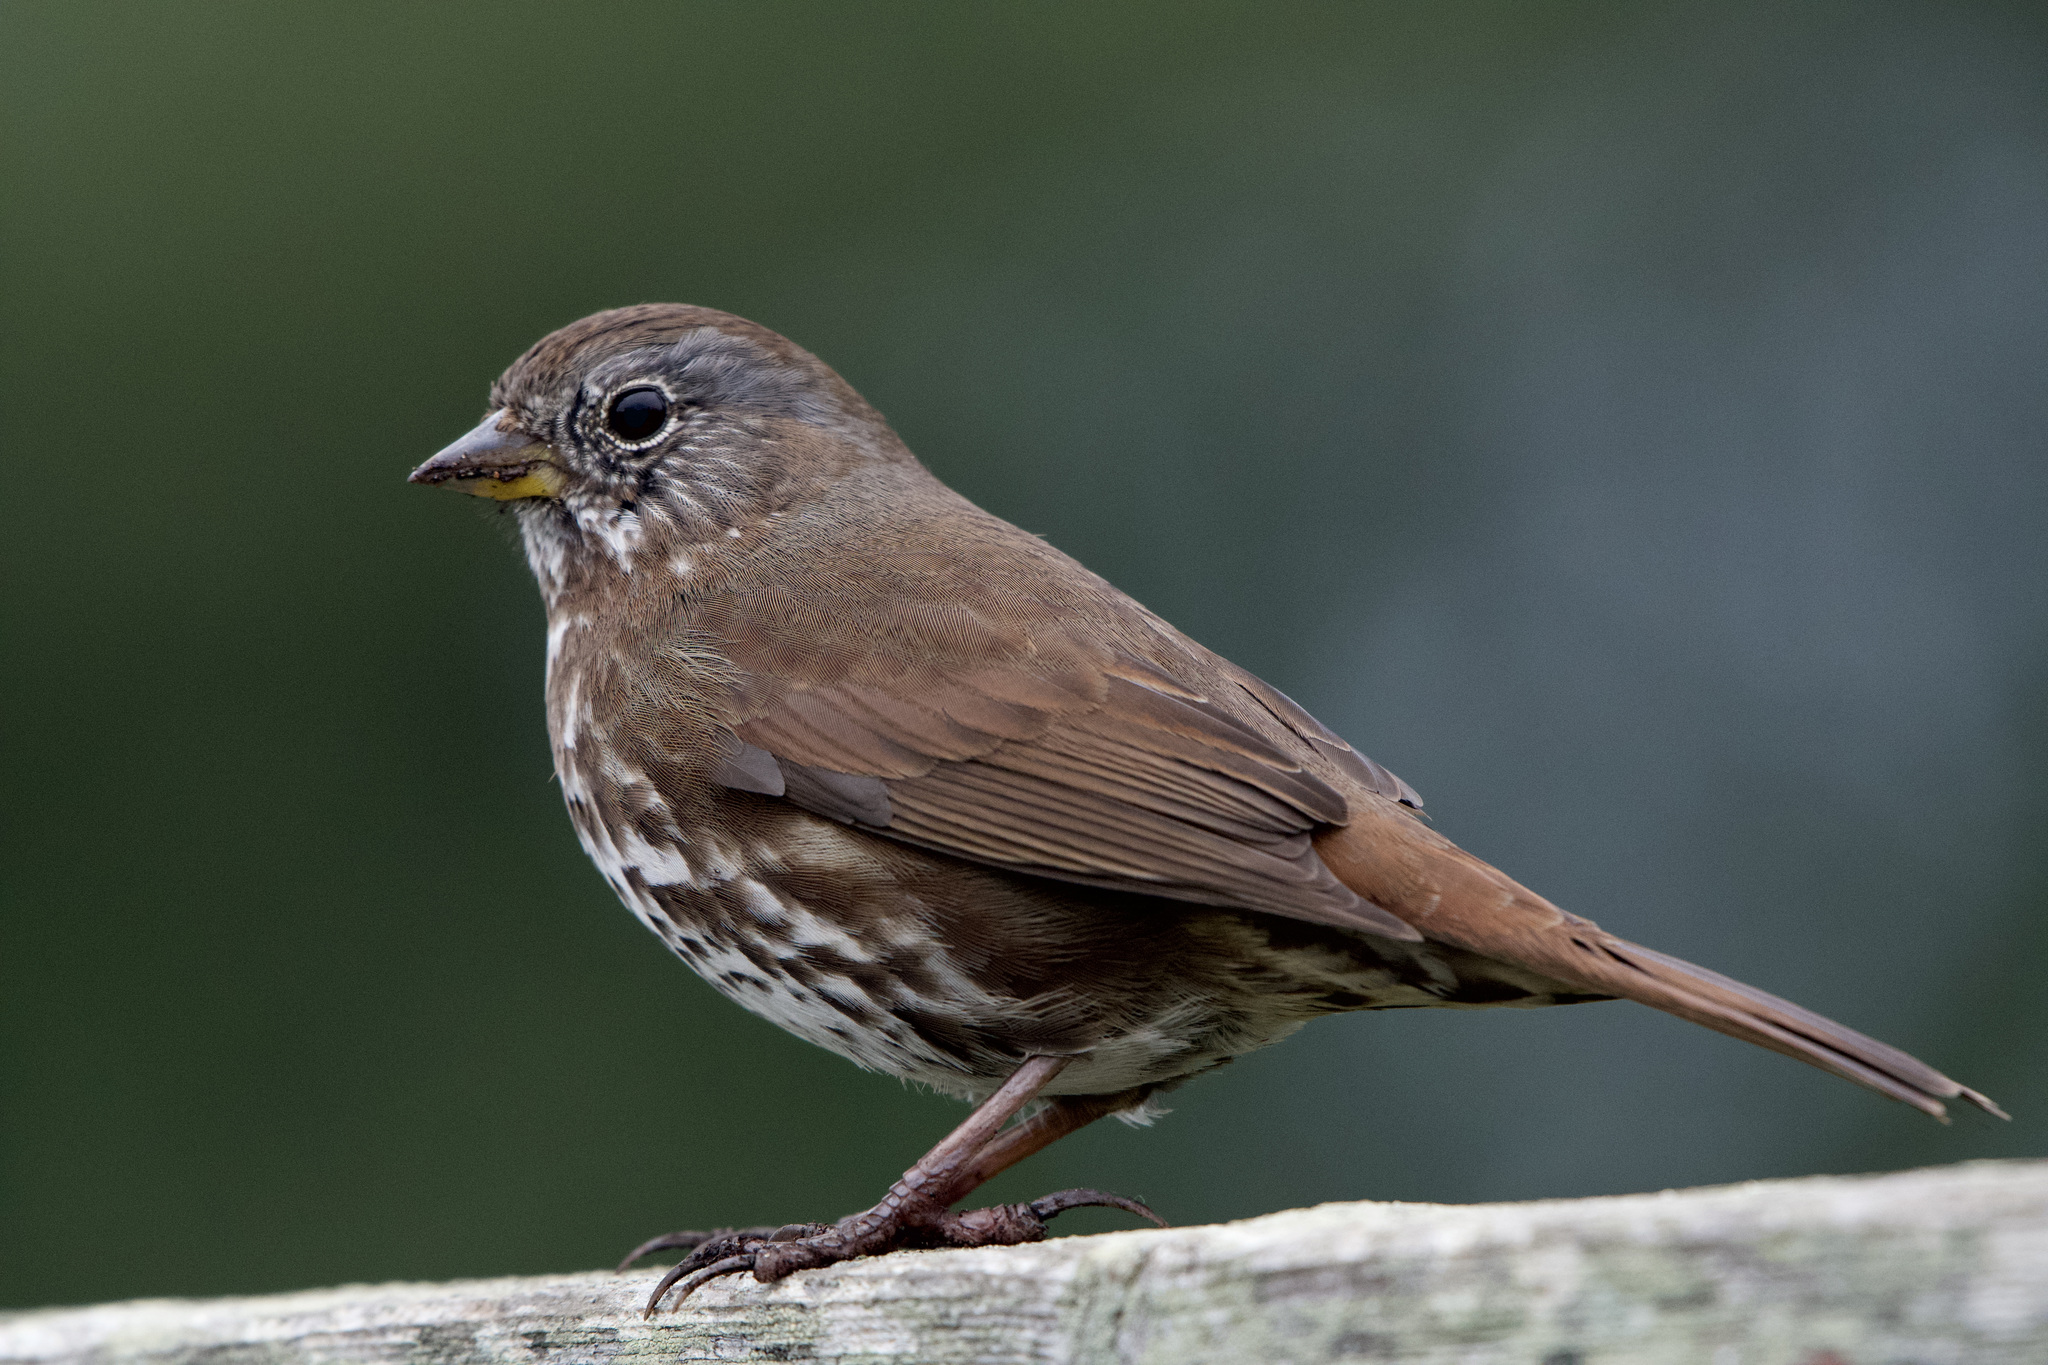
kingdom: Animalia
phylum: Chordata
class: Aves
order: Passeriformes
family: Passerellidae
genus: Passerella
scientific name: Passerella iliaca
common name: Fox sparrow
